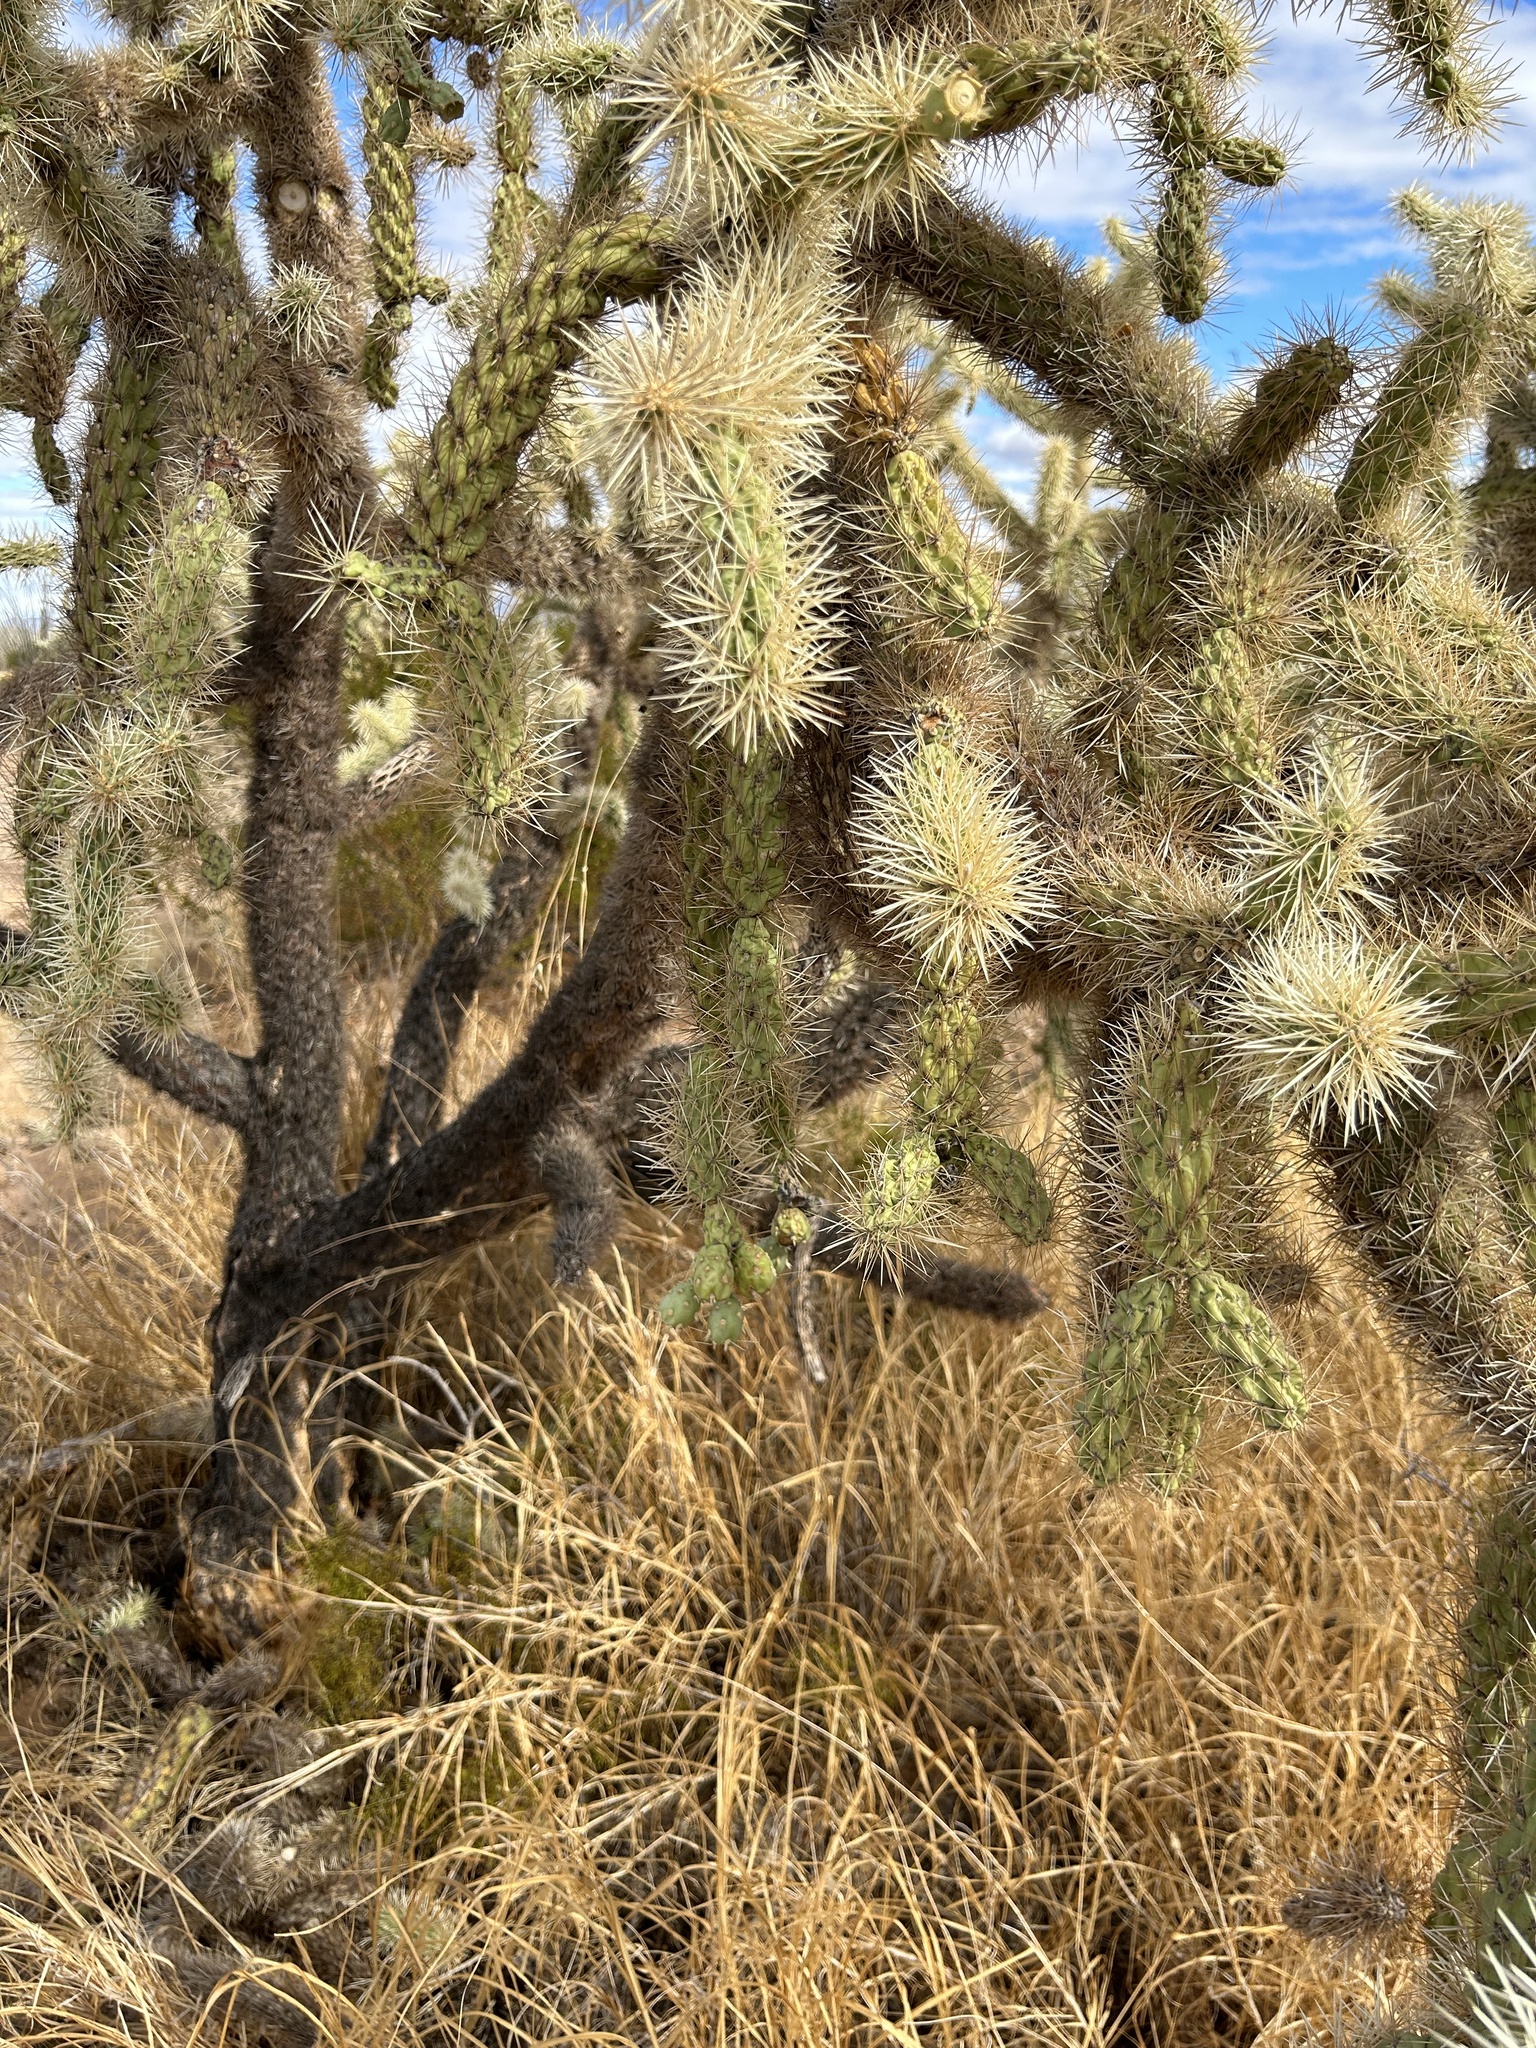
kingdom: Plantae
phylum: Tracheophyta
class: Magnoliopsida
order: Caryophyllales
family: Cactaceae
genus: Cylindropuntia
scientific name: Cylindropuntia fulgida
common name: Jumping cholla
